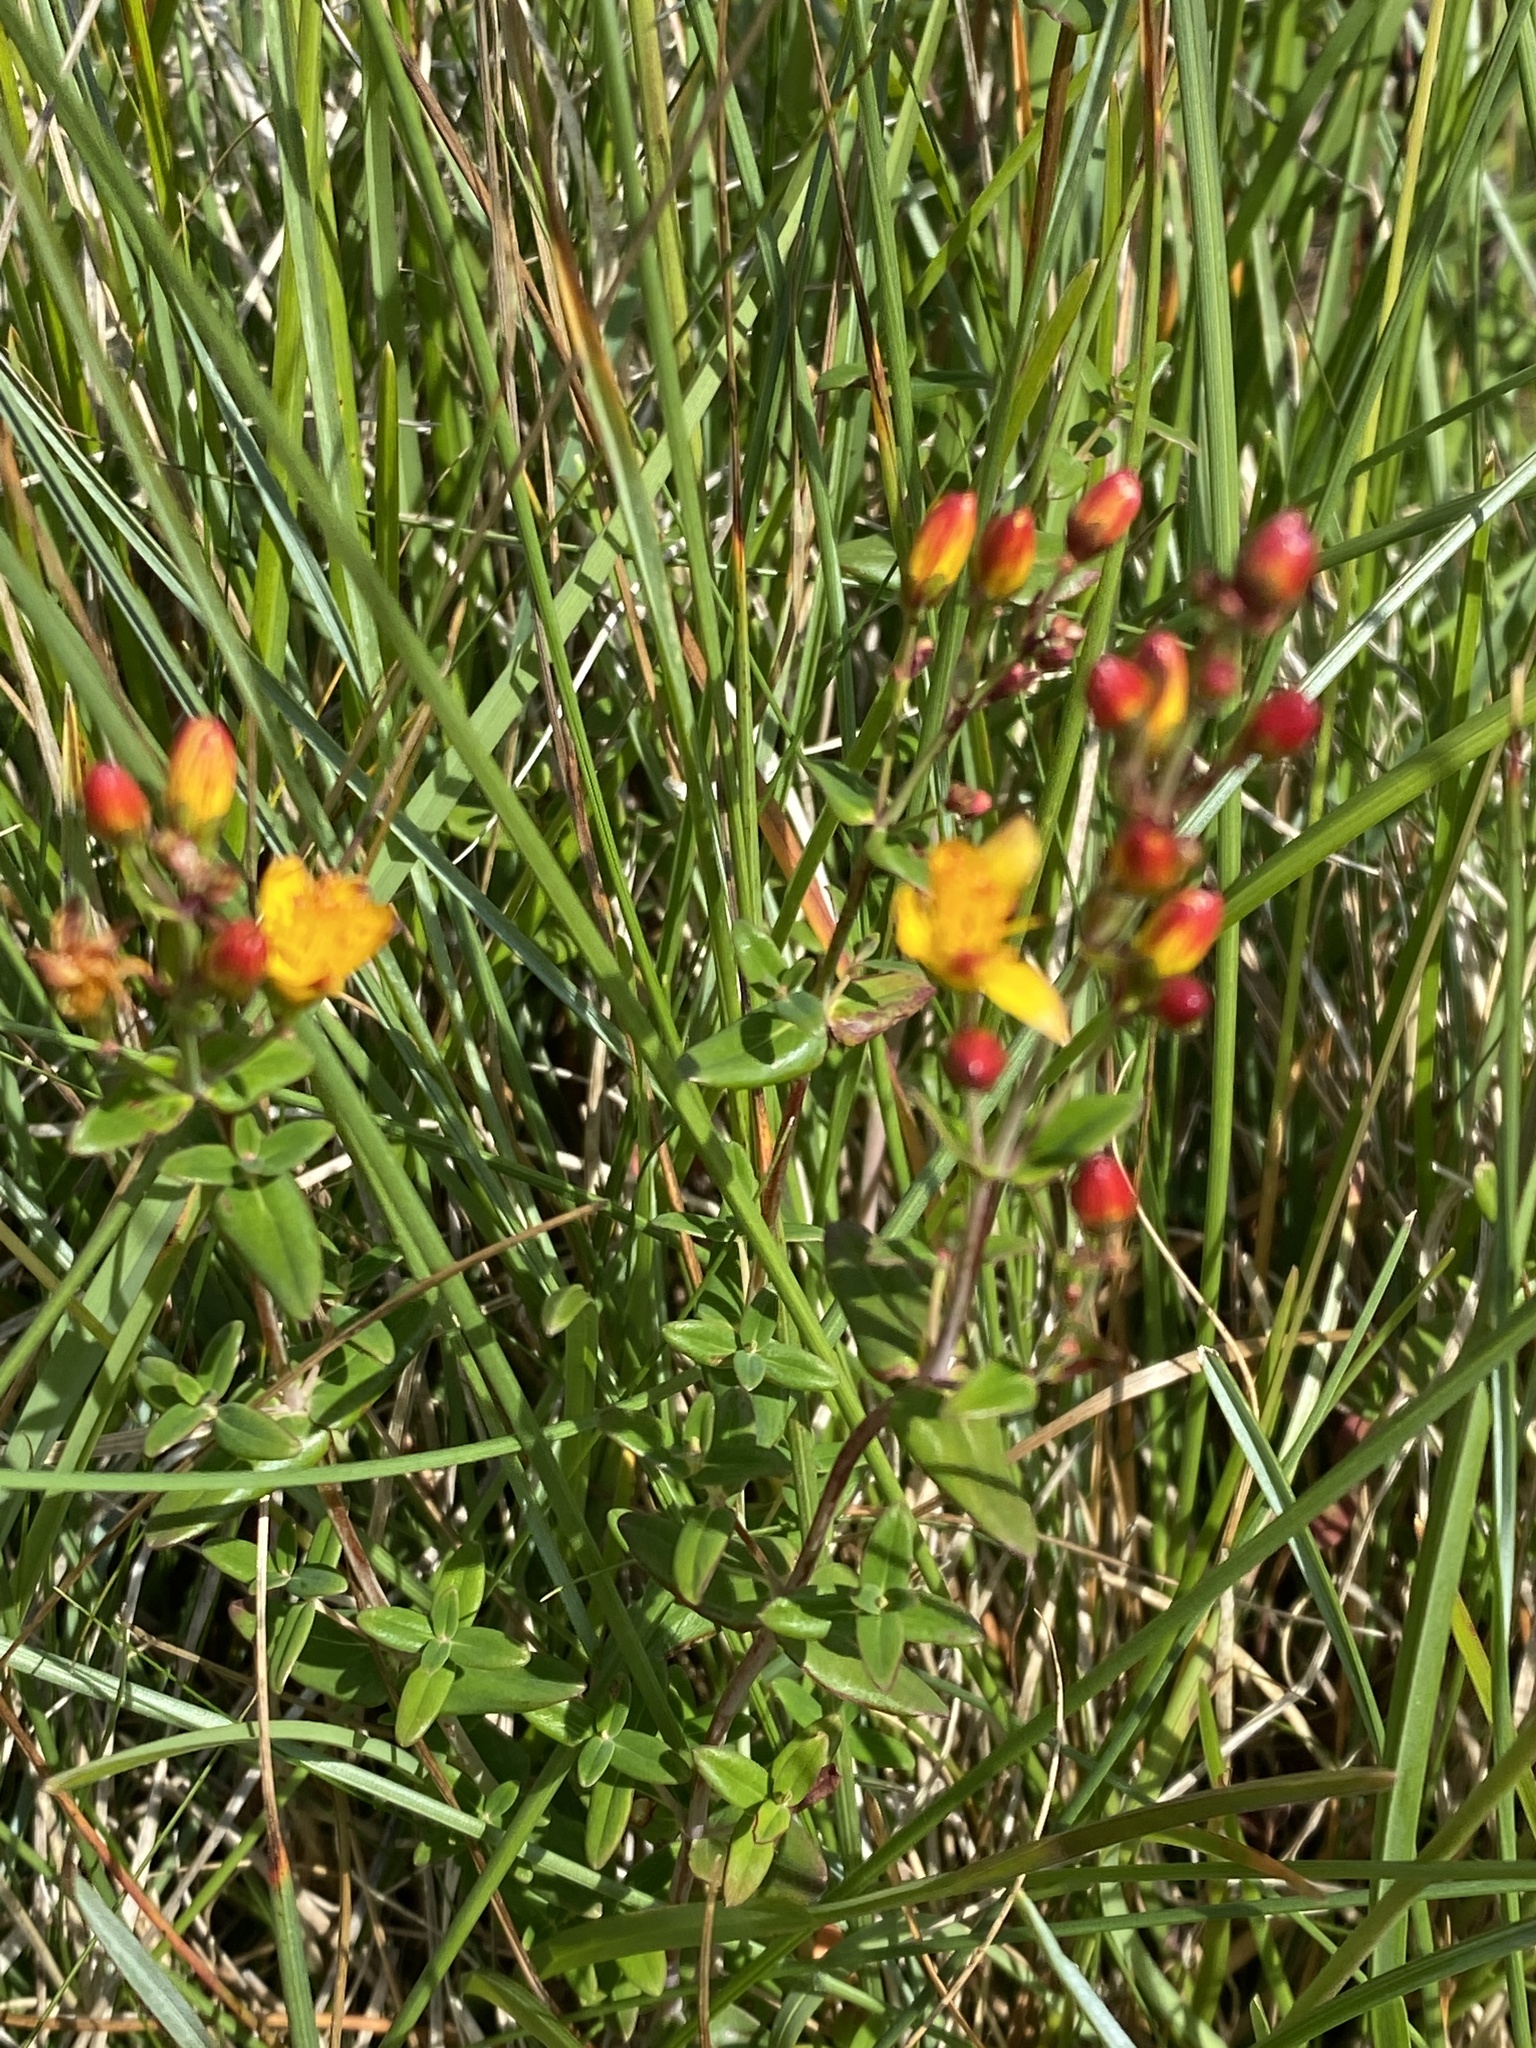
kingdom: Plantae
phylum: Tracheophyta
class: Magnoliopsida
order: Malpighiales
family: Hypericaceae
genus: Hypericum
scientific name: Hypericum pulchrum
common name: Slender st. john's-wort
